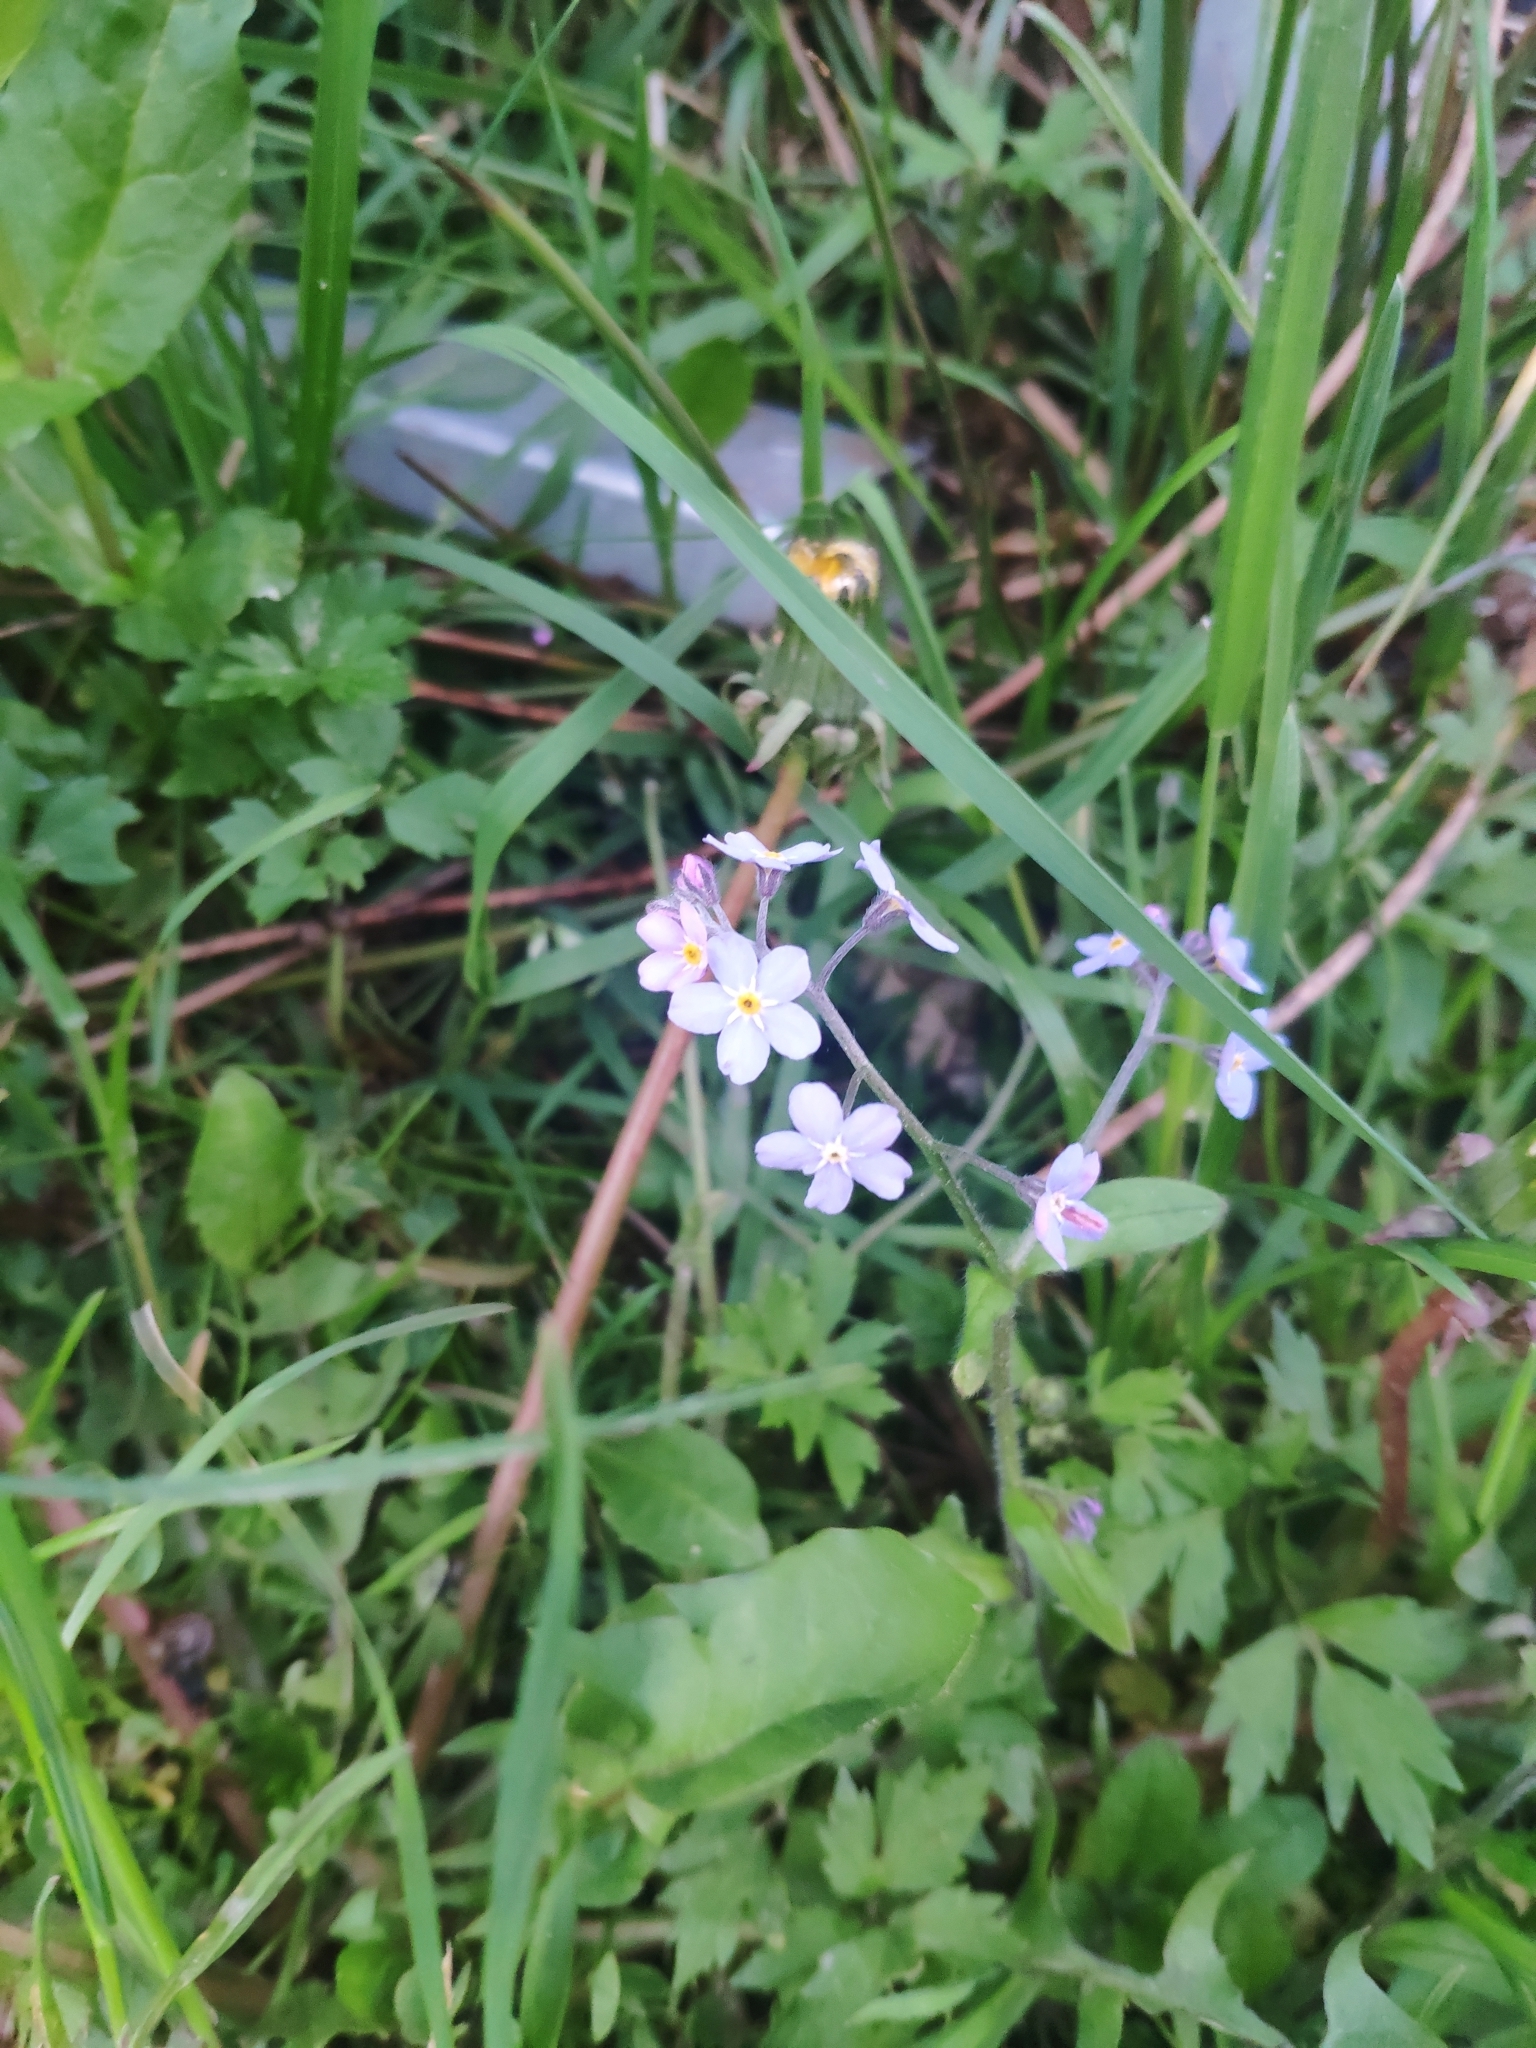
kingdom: Plantae
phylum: Tracheophyta
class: Magnoliopsida
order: Boraginales
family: Boraginaceae
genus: Myosotis
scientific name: Myosotis sylvatica
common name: Wood forget-me-not
